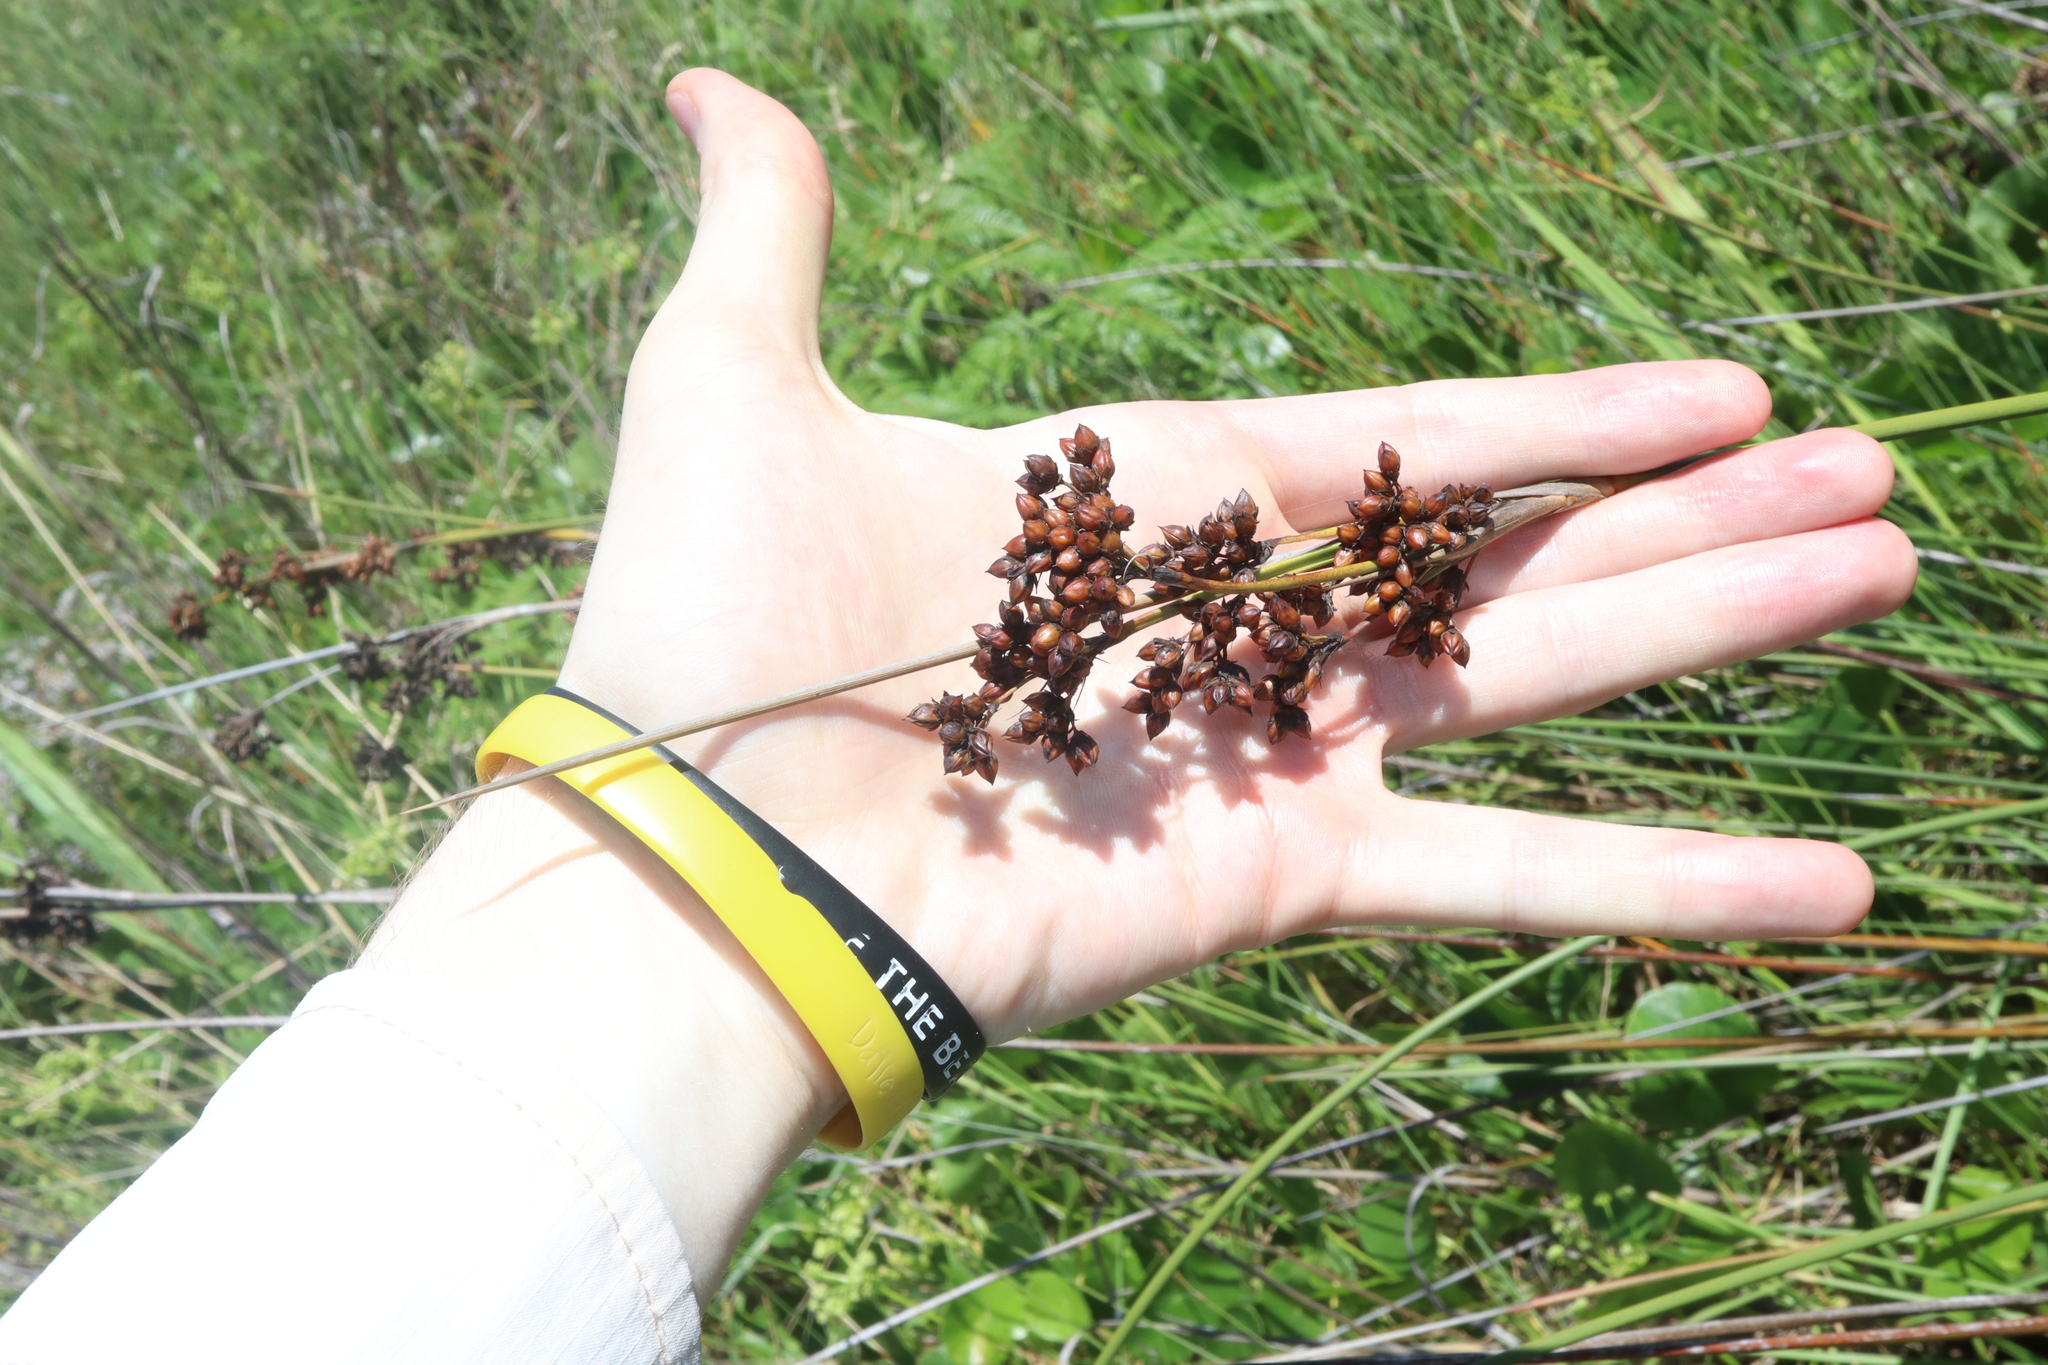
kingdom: Plantae
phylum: Tracheophyta
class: Liliopsida
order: Poales
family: Juncaceae
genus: Juncus
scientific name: Juncus acutus
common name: Sharp rush
